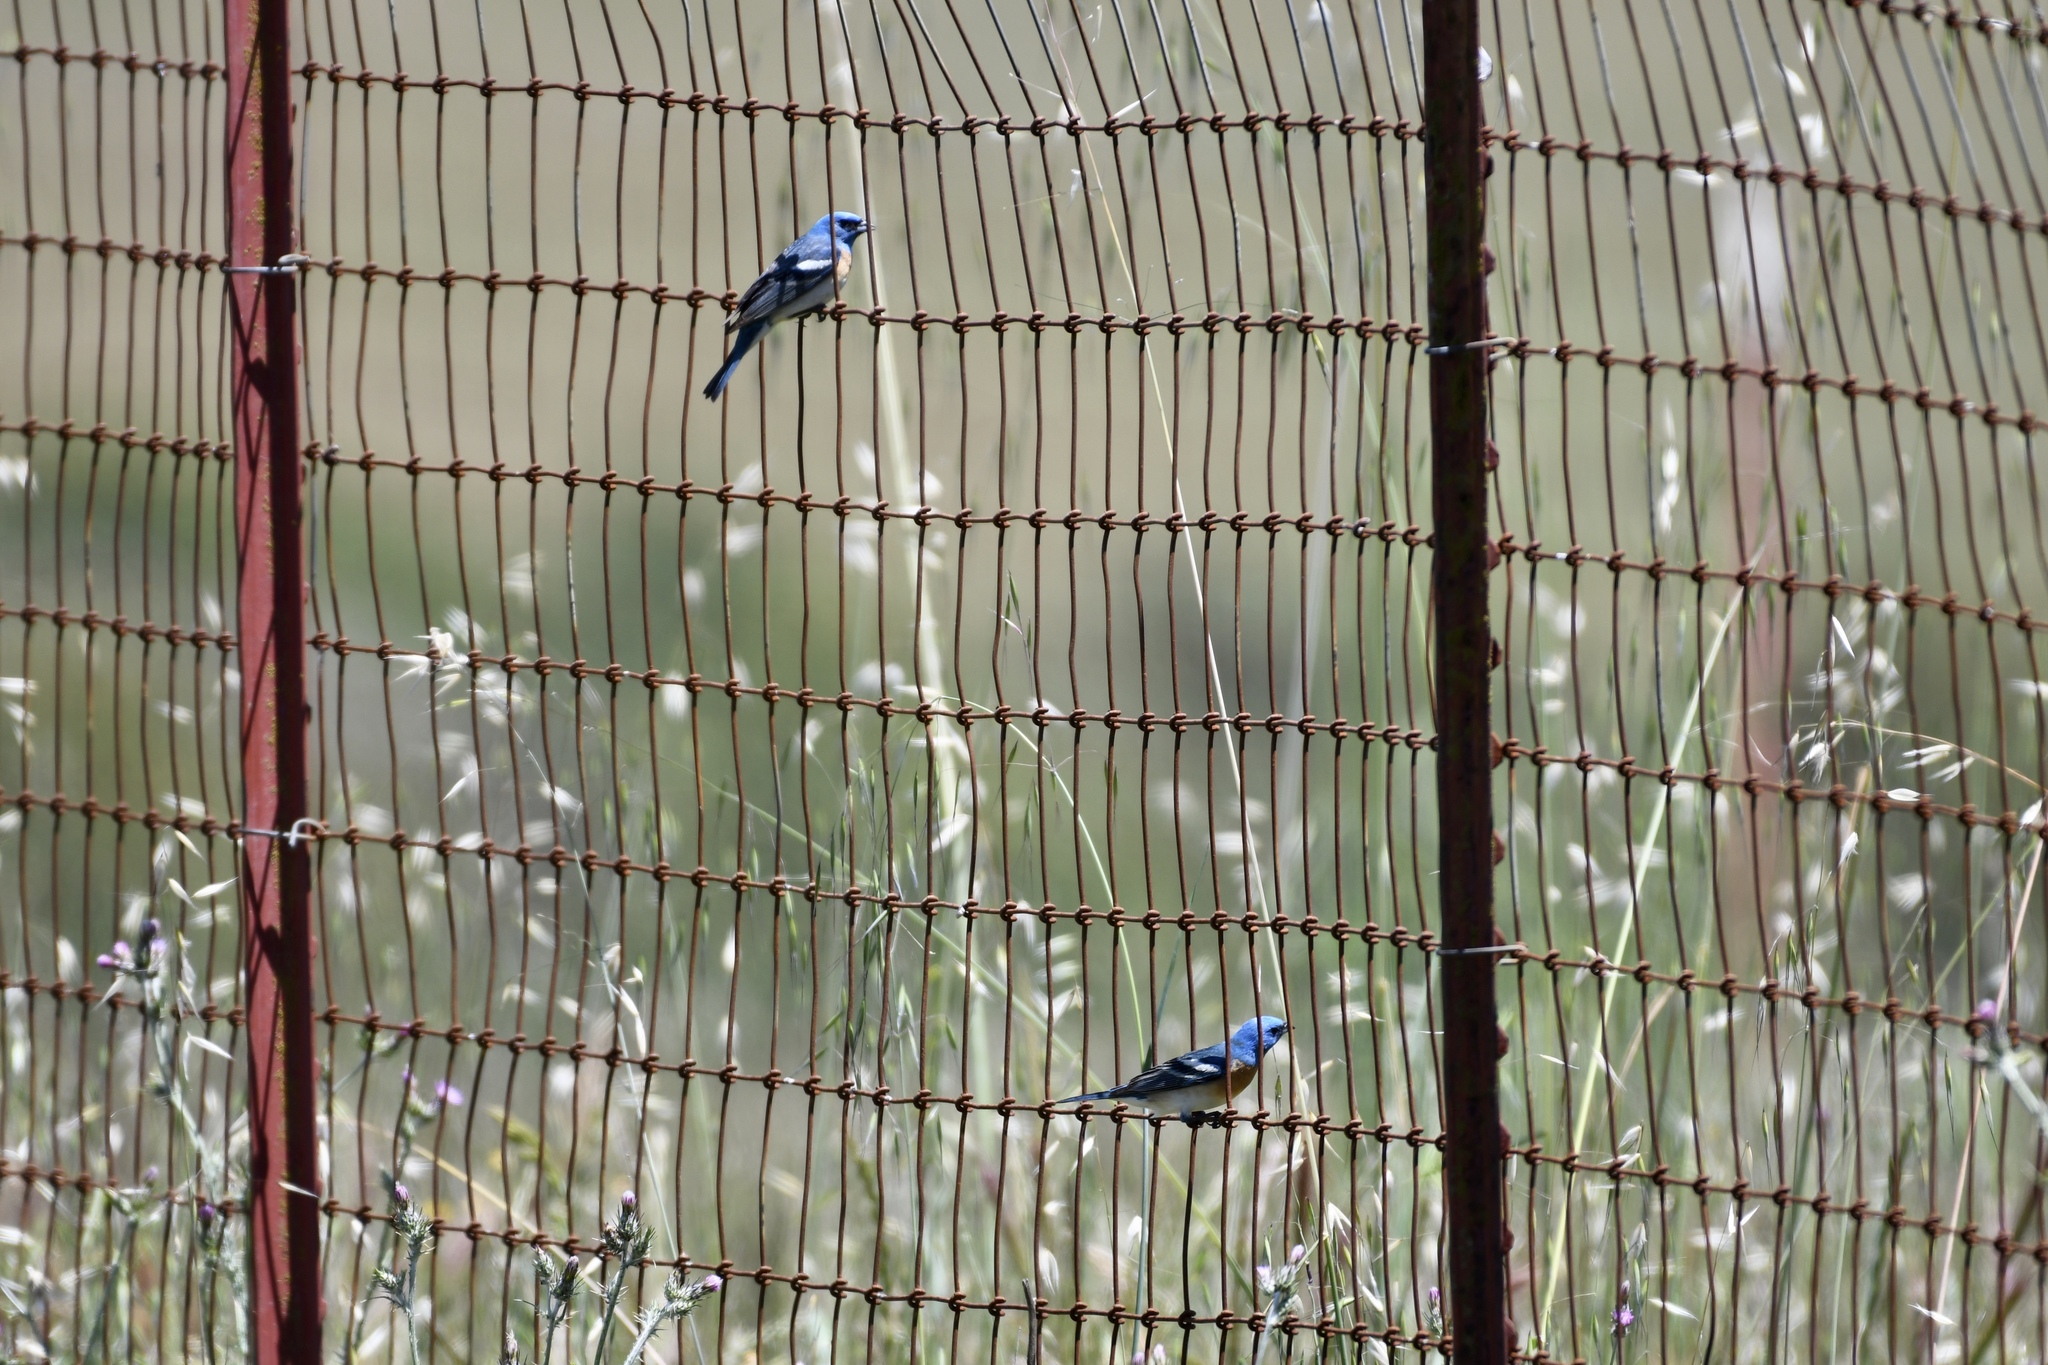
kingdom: Animalia
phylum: Chordata
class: Aves
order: Passeriformes
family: Cardinalidae
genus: Passerina
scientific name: Passerina amoena
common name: Lazuli bunting
